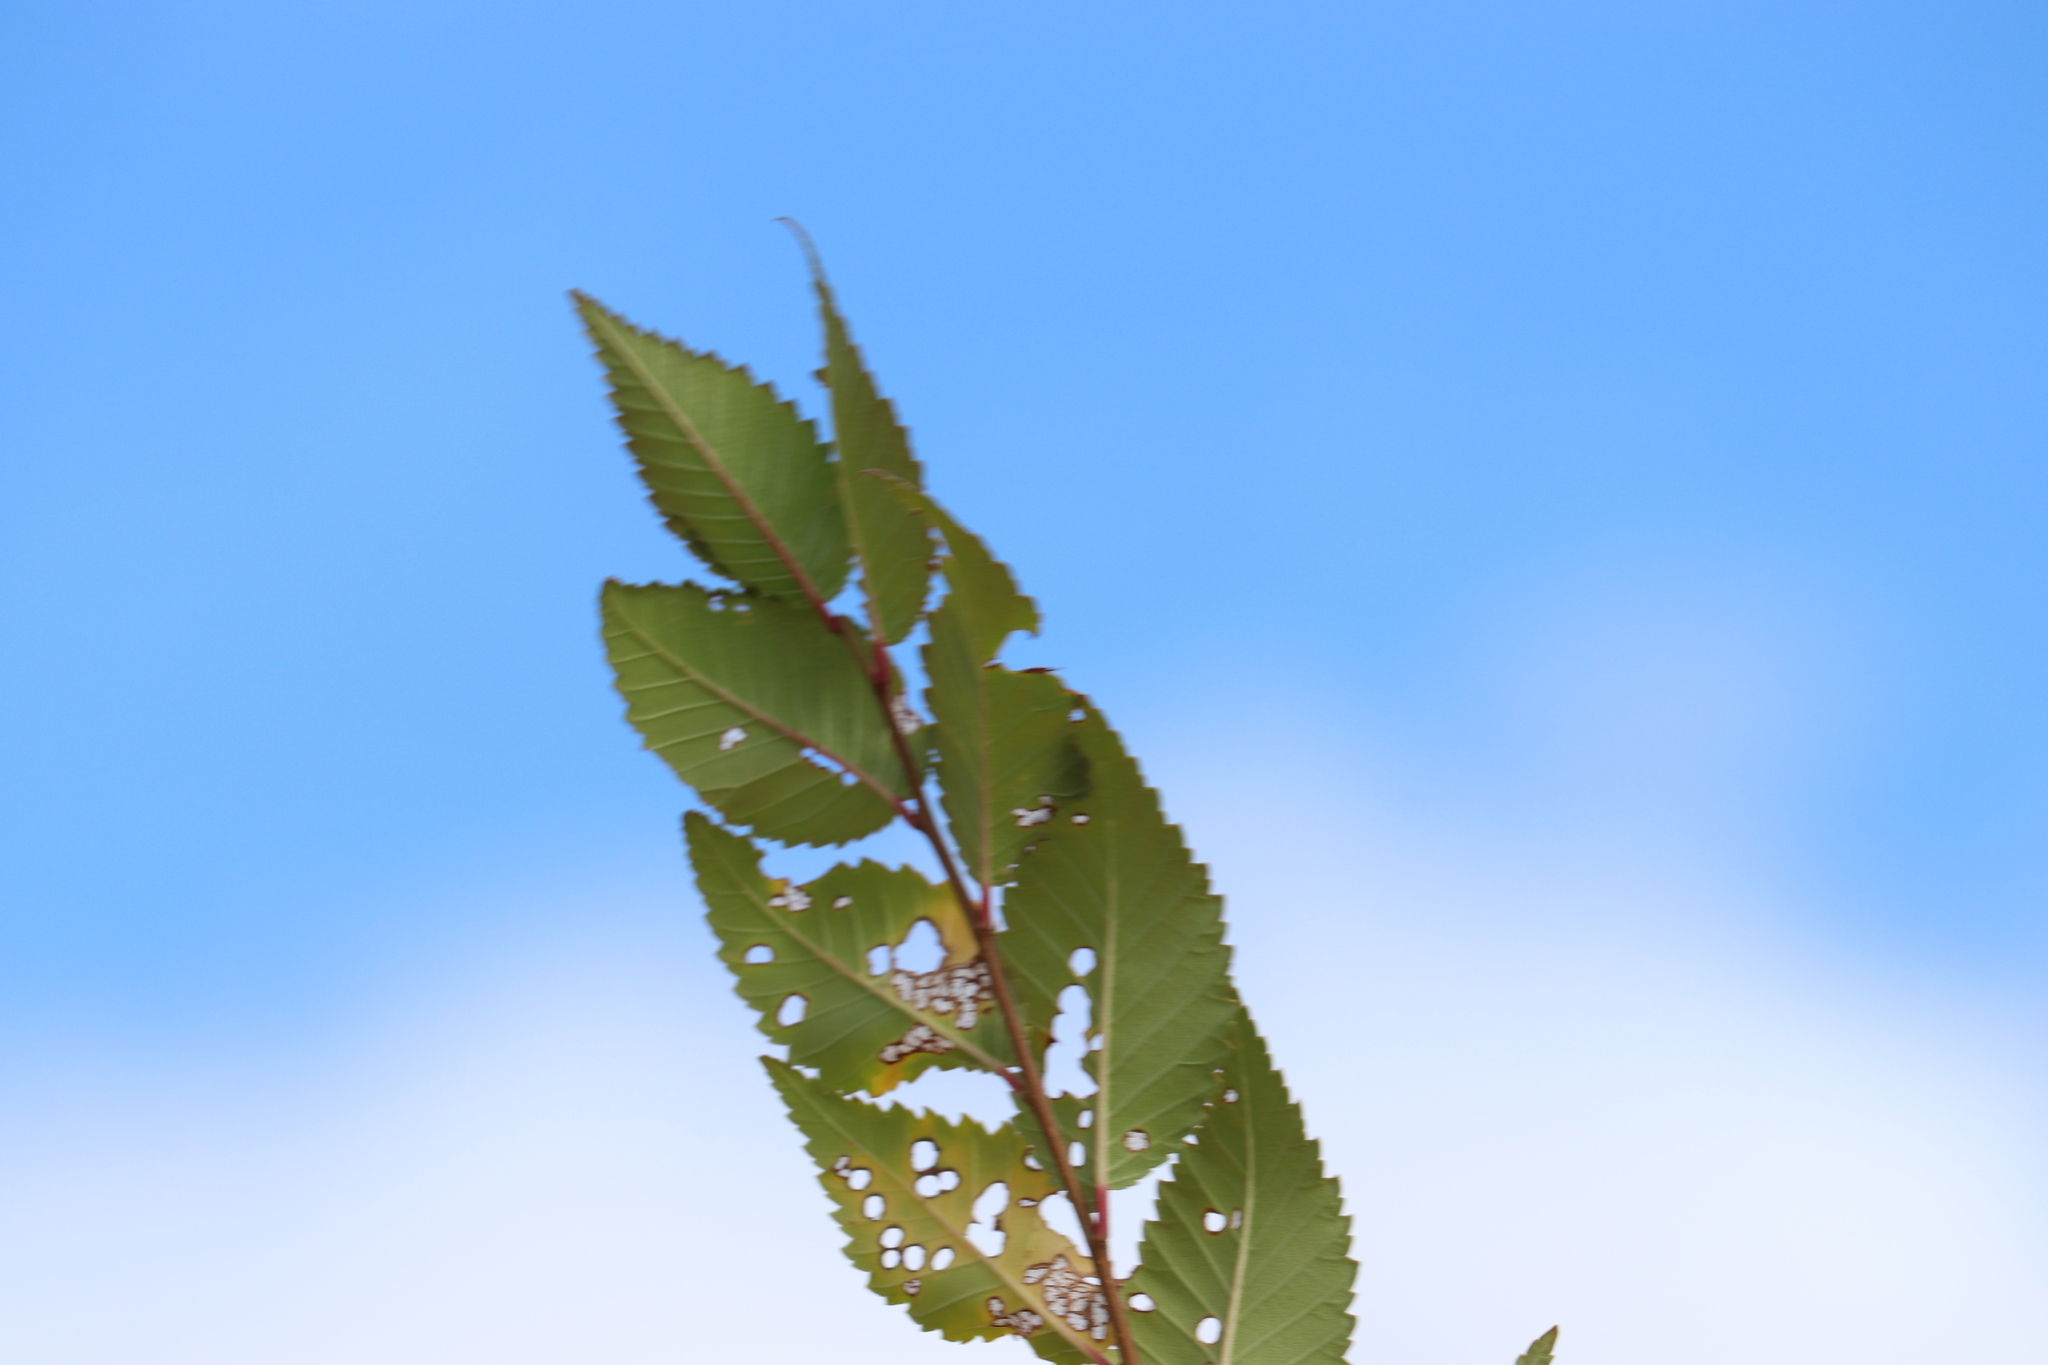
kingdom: Plantae
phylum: Tracheophyta
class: Magnoliopsida
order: Rosales
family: Ulmaceae
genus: Ulmus
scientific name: Ulmus pumila
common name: Siberian elm
